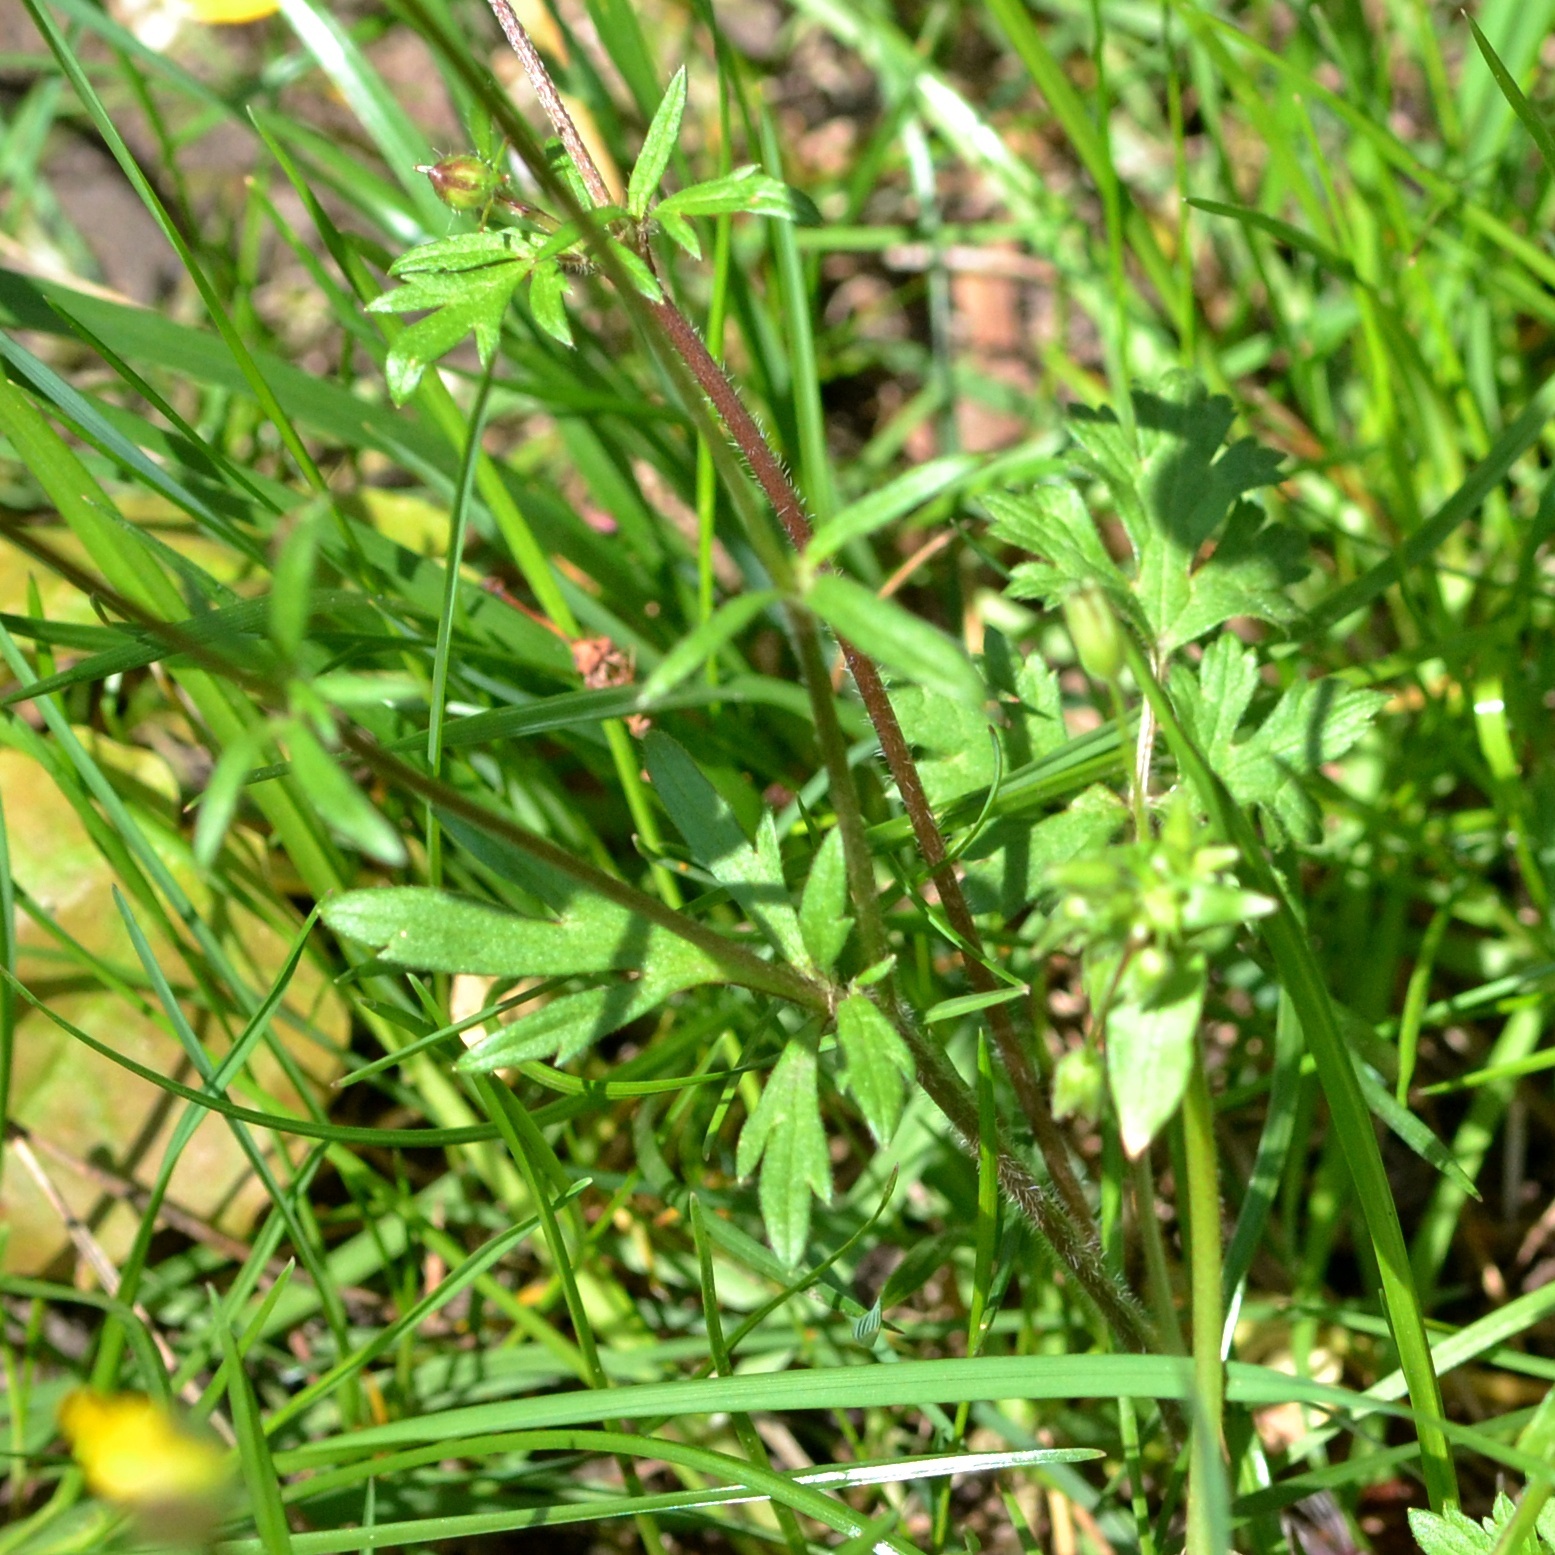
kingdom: Plantae
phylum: Tracheophyta
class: Magnoliopsida
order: Ranunculales
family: Ranunculaceae
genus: Ranunculus
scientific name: Ranunculus bulbosus
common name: Bulbous buttercup
